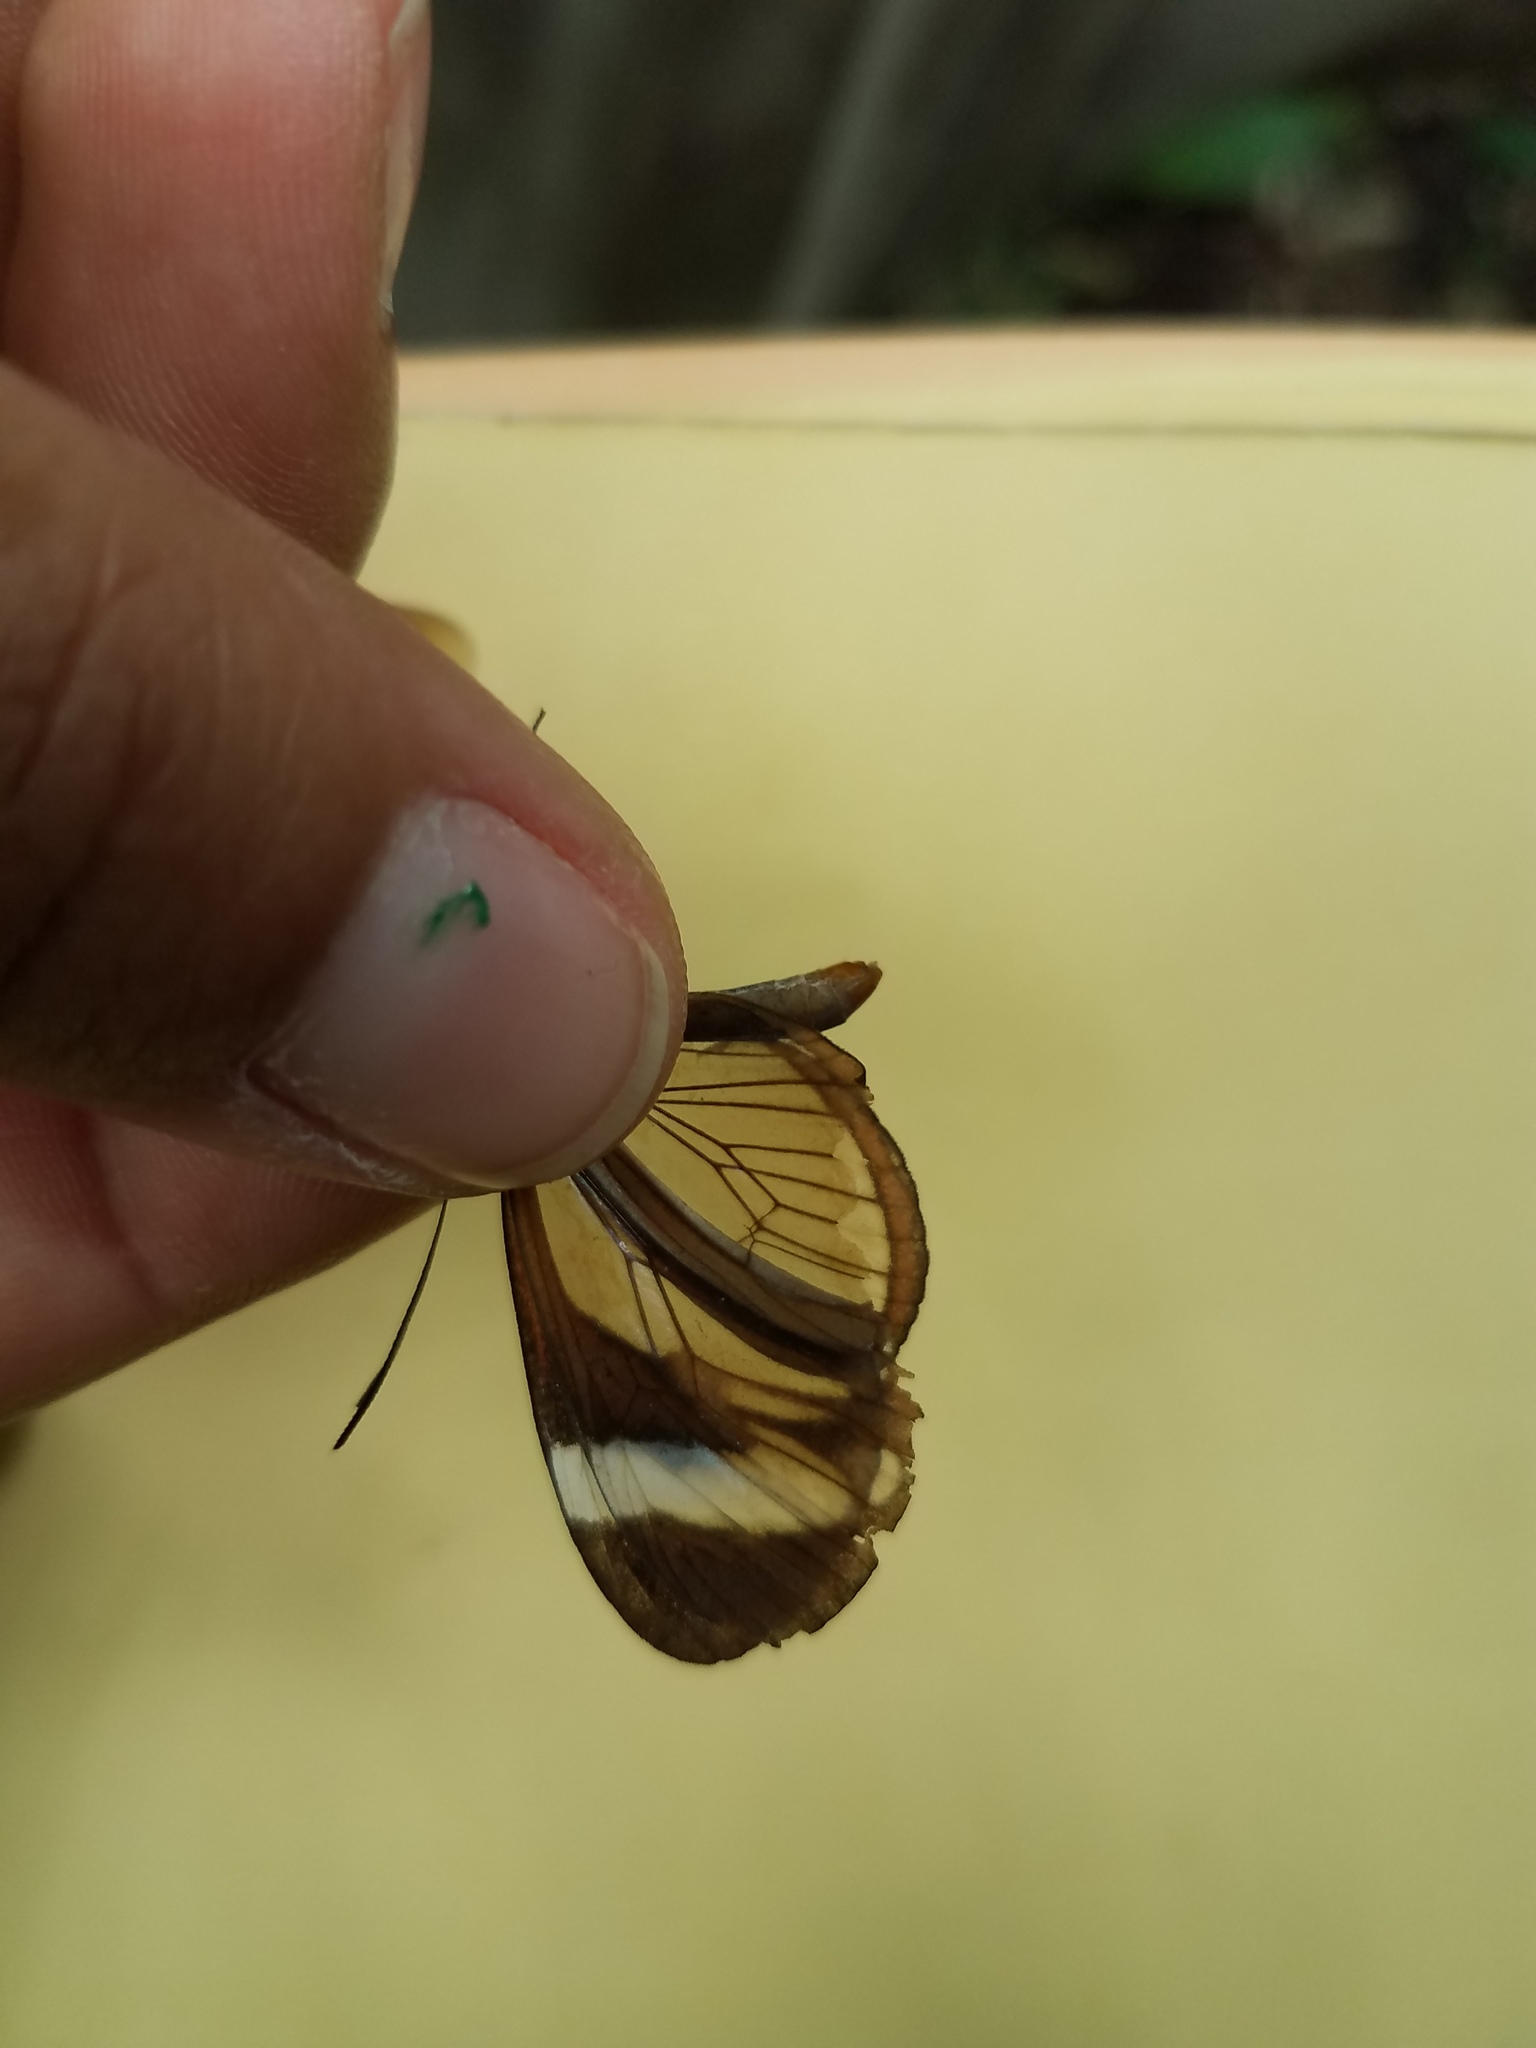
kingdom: Animalia
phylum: Arthropoda
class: Insecta
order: Lepidoptera
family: Nymphalidae
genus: Ithomia
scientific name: Ithomia patilla
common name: Patilla clearwing
